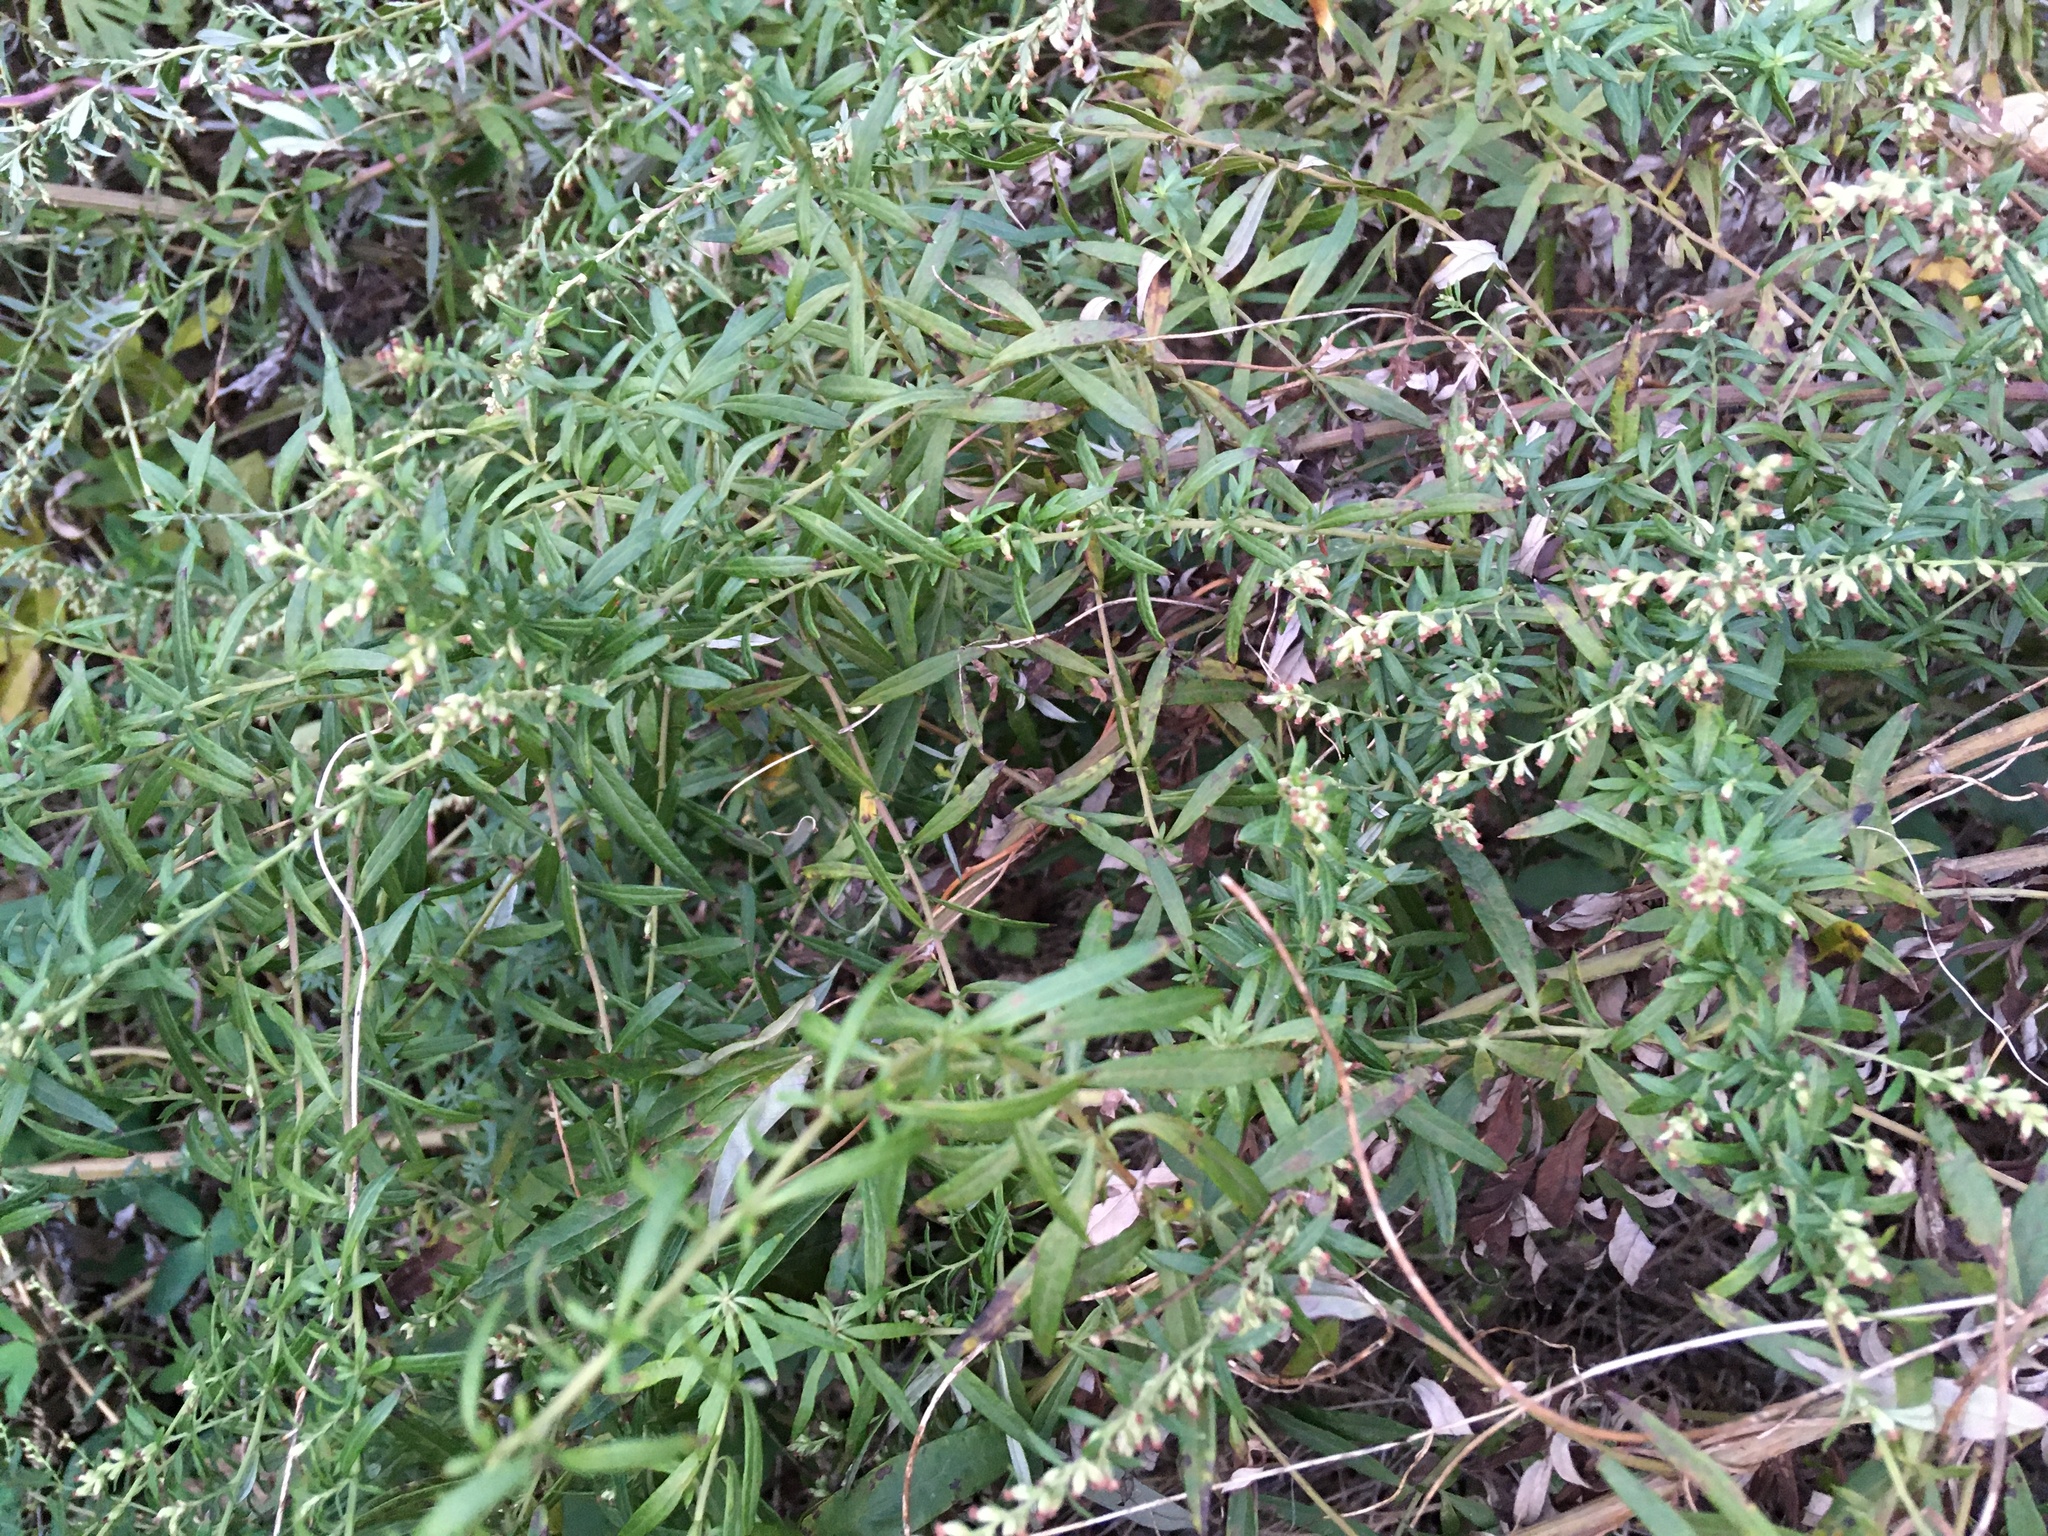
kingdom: Plantae
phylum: Tracheophyta
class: Magnoliopsida
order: Asterales
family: Asteraceae
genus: Artemisia
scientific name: Artemisia vulgaris
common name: Mugwort
